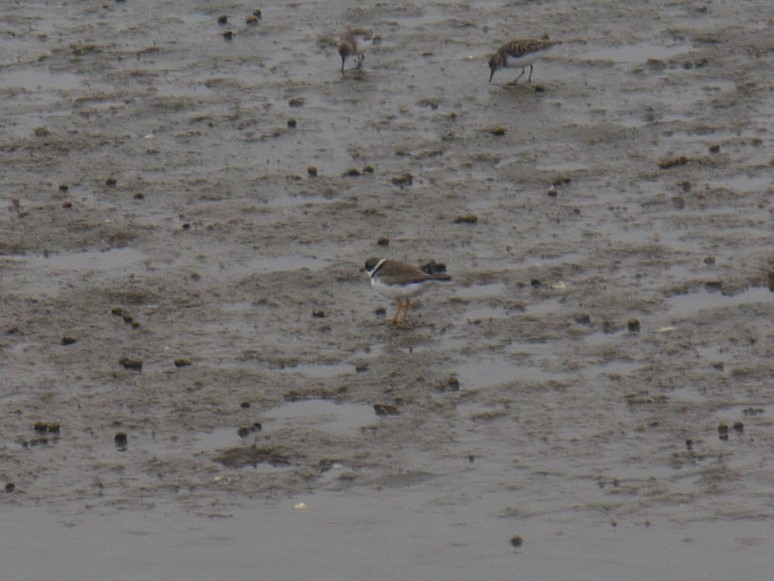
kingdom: Animalia
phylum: Chordata
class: Aves
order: Charadriiformes
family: Charadriidae
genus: Charadrius
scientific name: Charadrius semipalmatus
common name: Semipalmated plover
